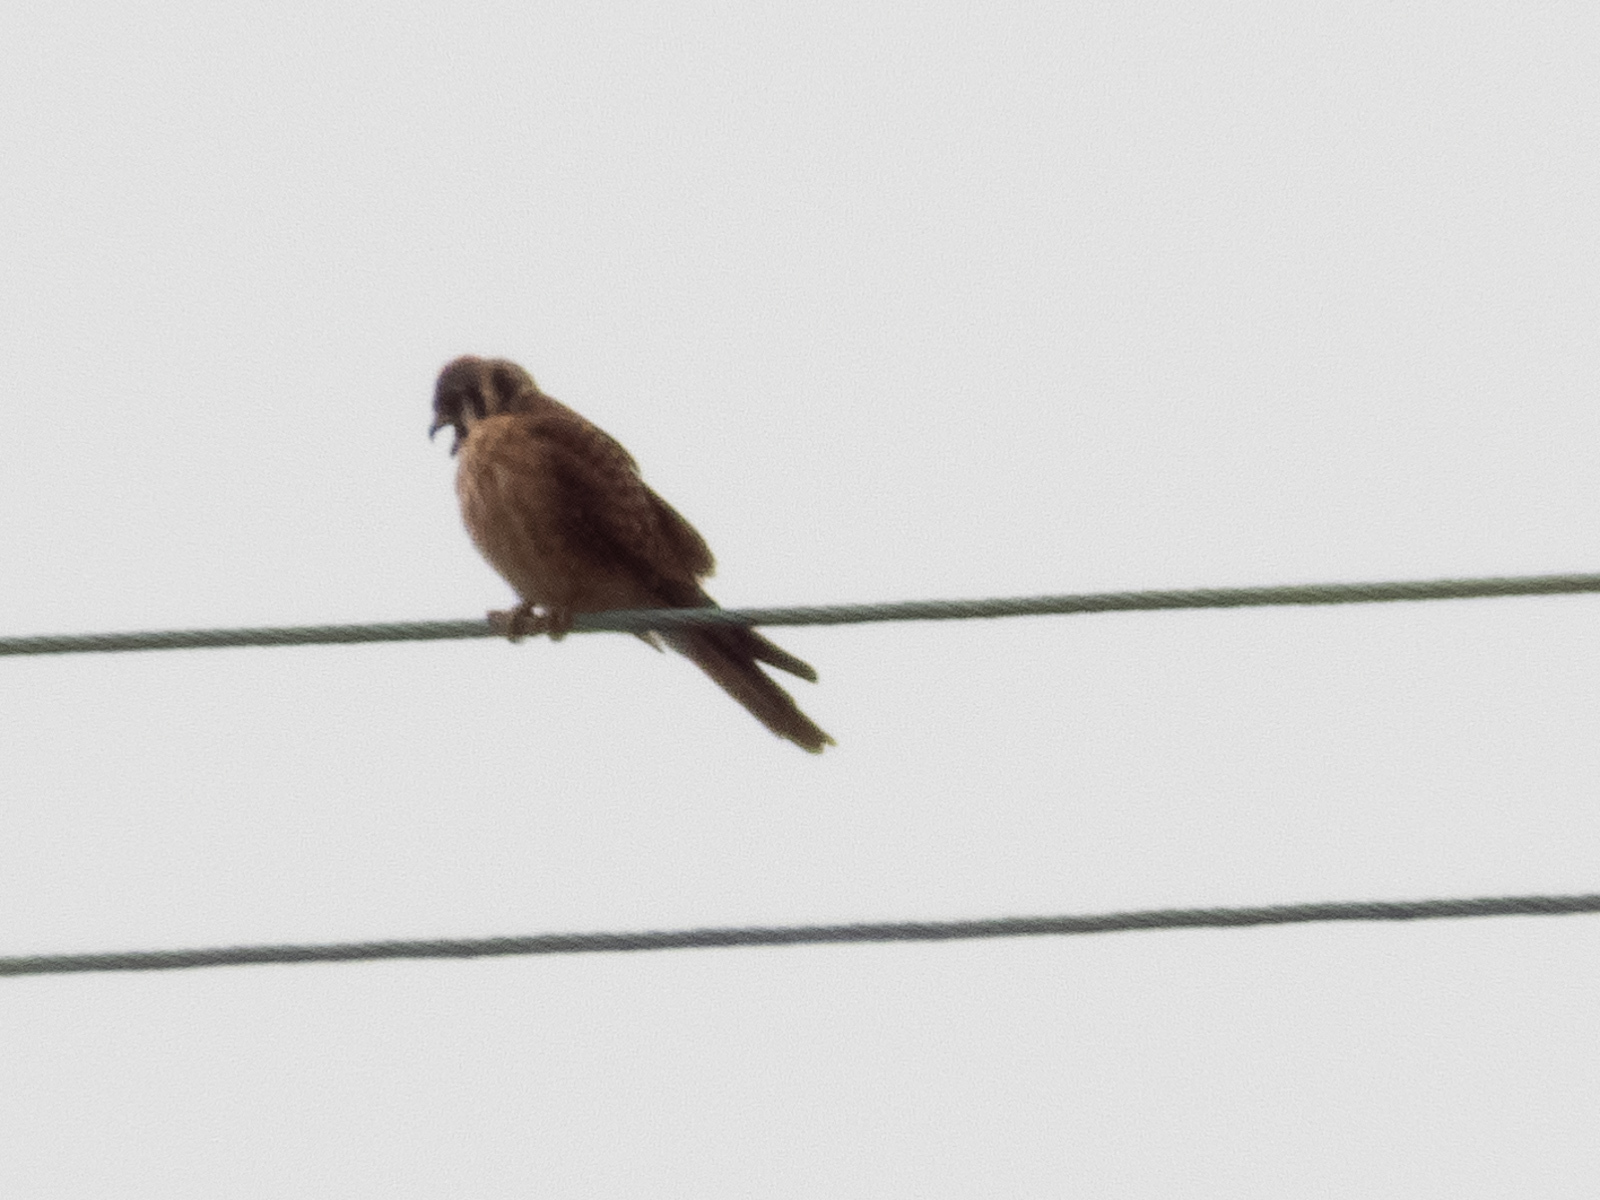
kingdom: Animalia
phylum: Chordata
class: Aves
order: Falconiformes
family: Falconidae
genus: Falco
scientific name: Falco sparverius
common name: American kestrel
